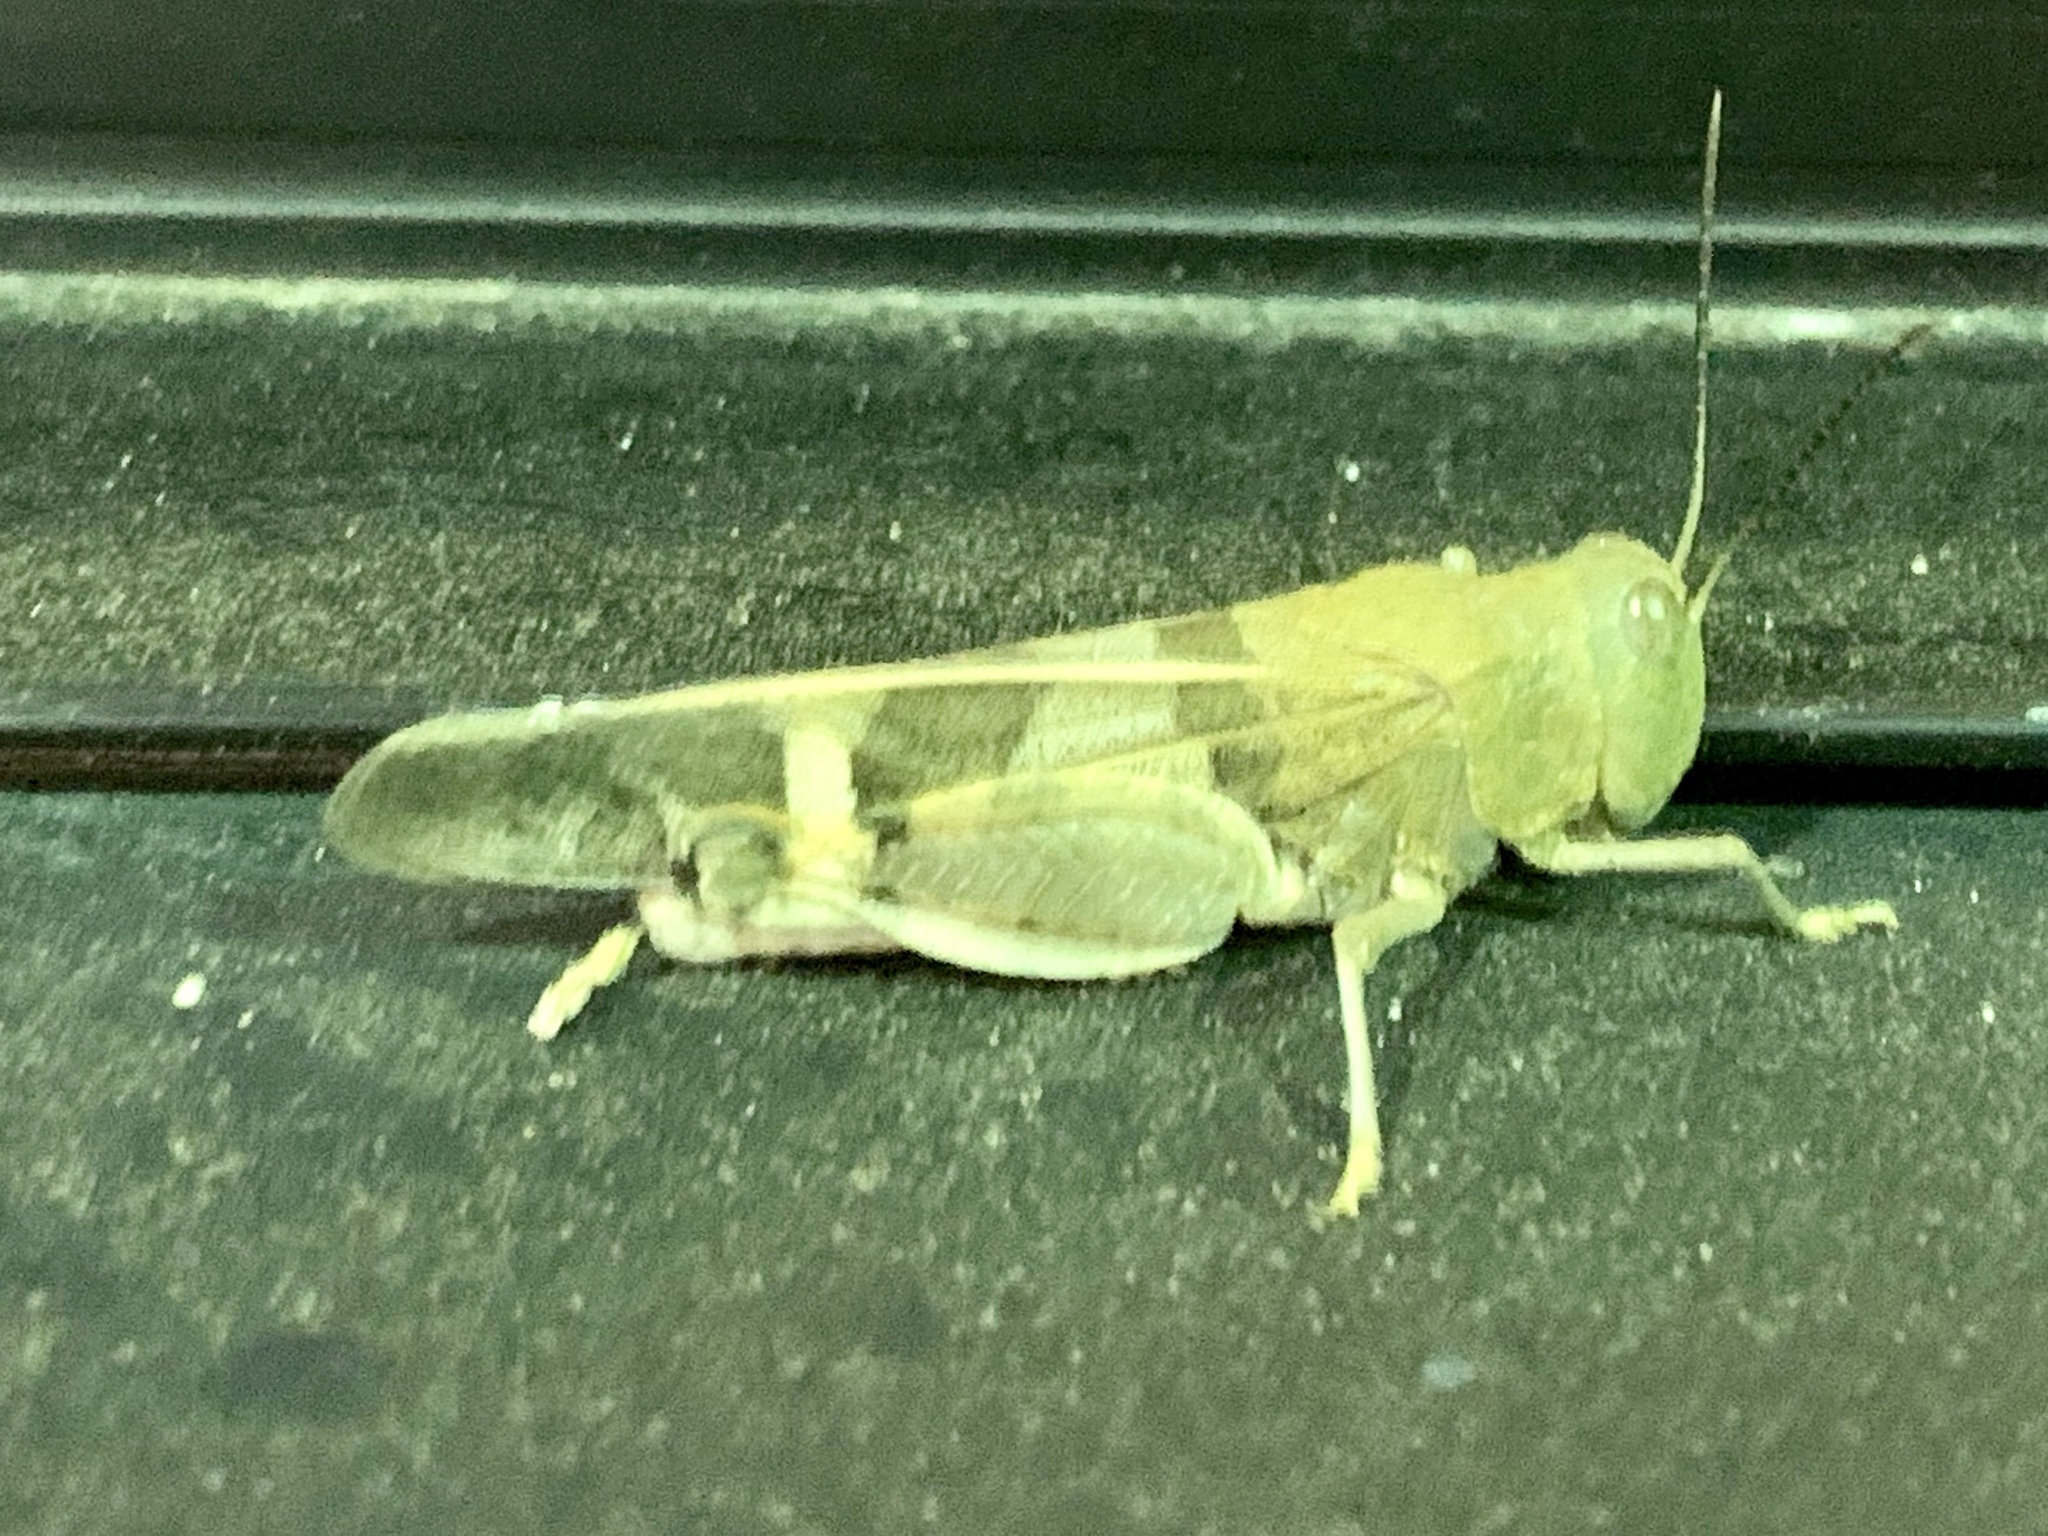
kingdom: Animalia
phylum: Arthropoda
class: Insecta
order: Orthoptera
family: Acrididae
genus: Leprus
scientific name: Leprus wheelerii
